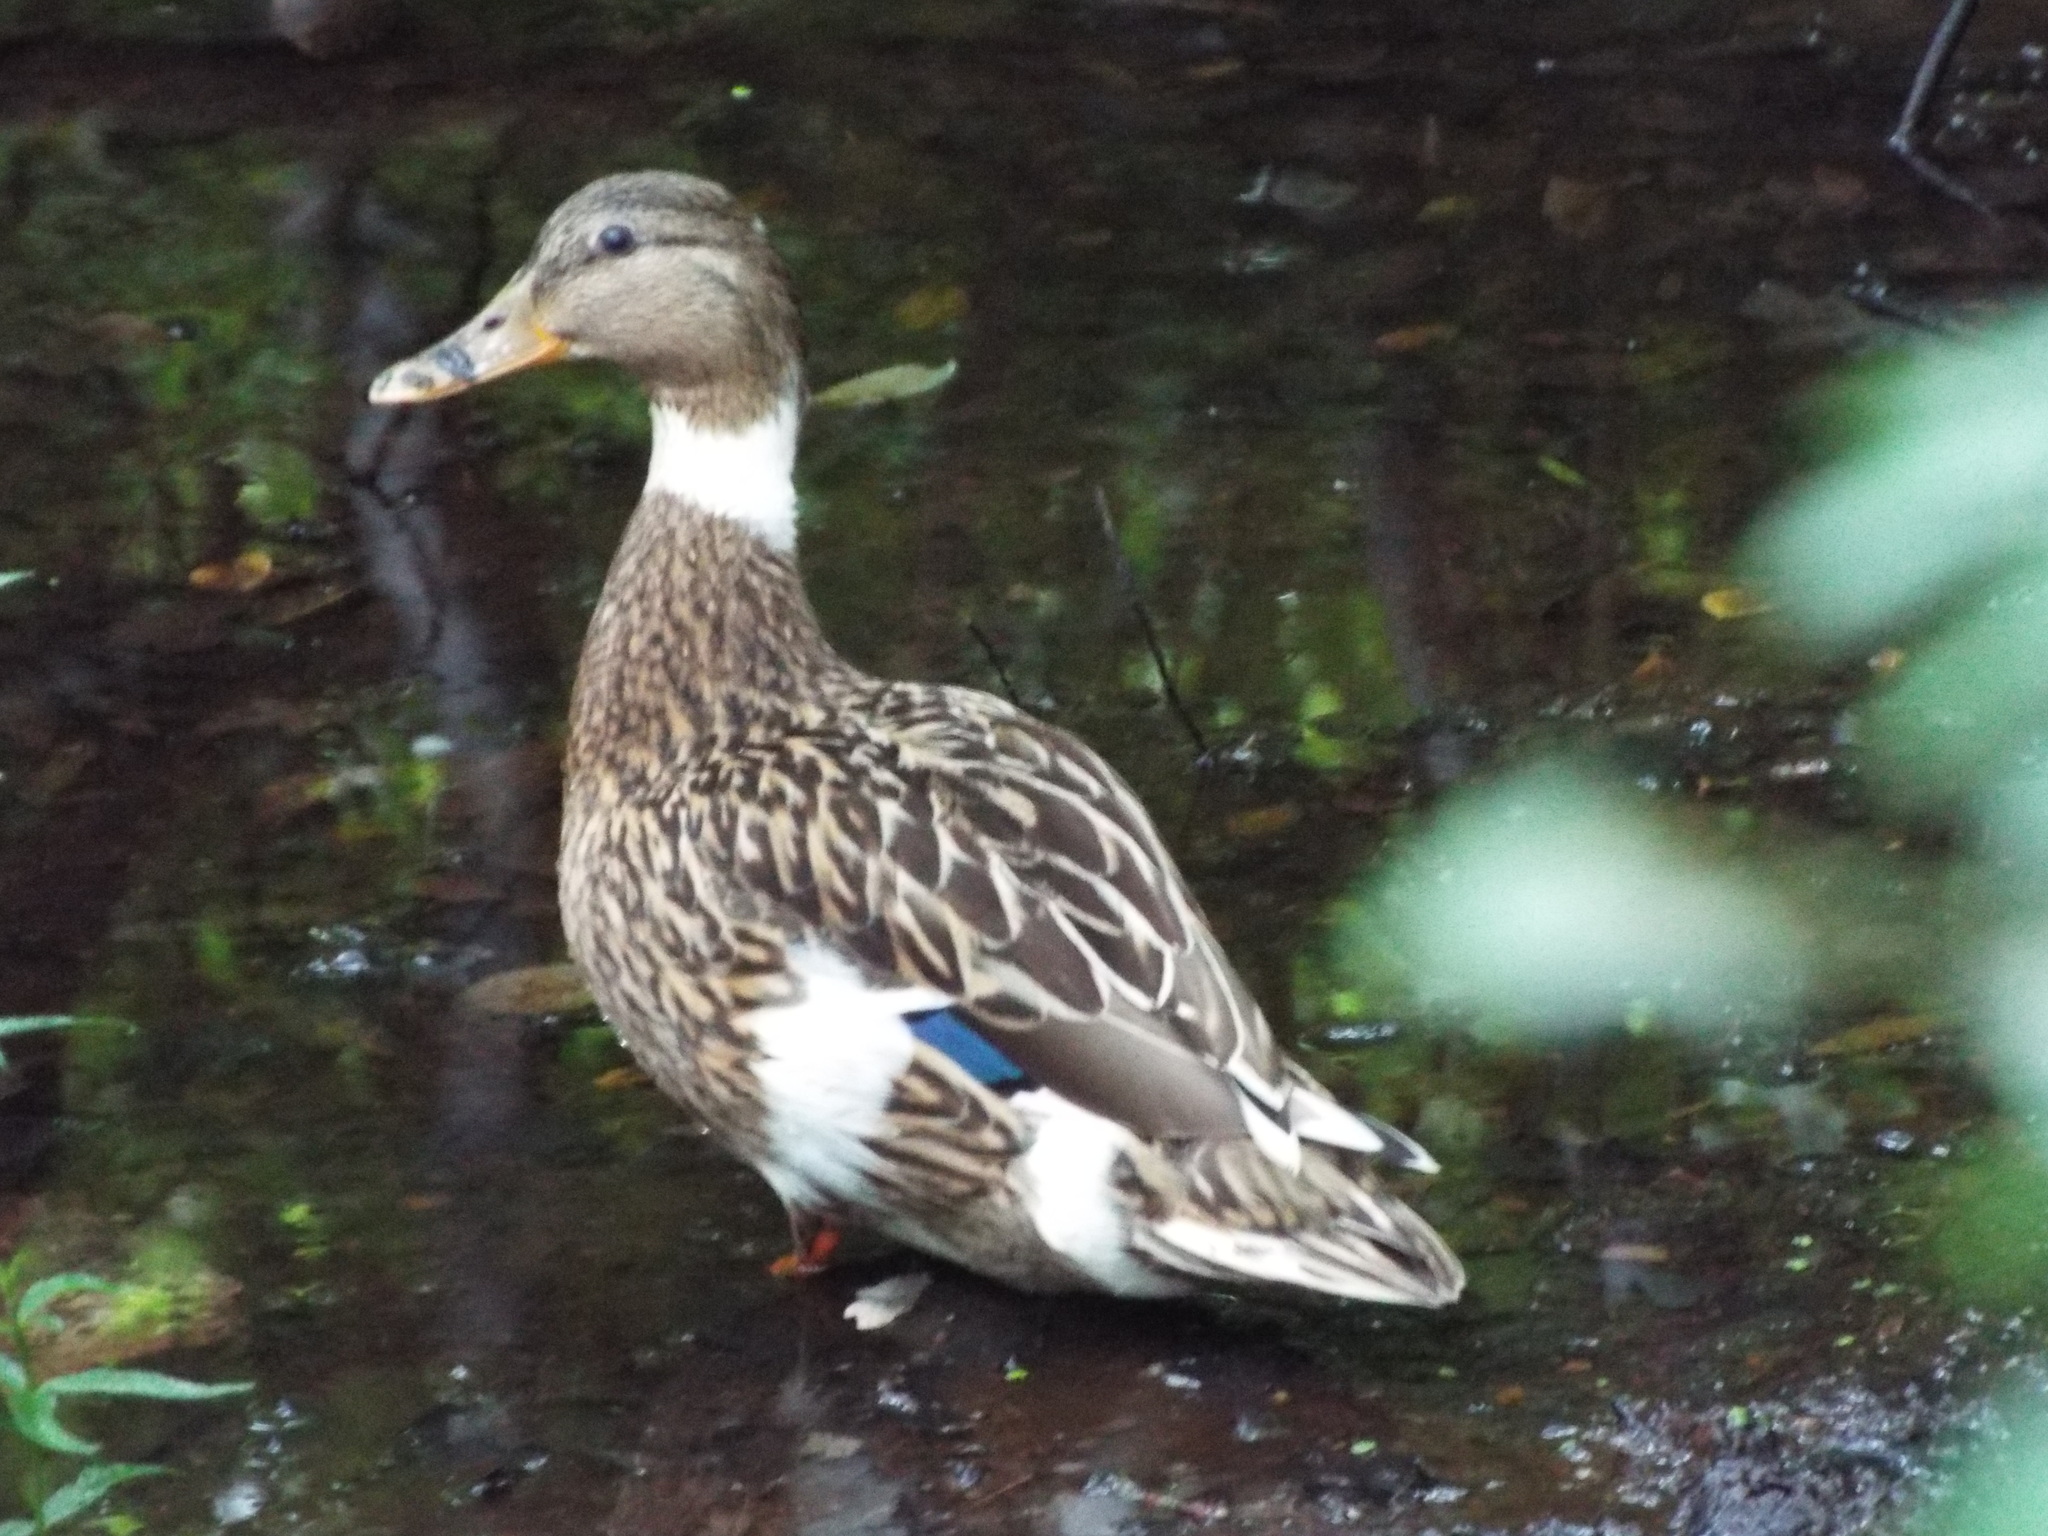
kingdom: Animalia
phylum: Chordata
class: Aves
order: Anseriformes
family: Anatidae
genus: Anas
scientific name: Anas platyrhynchos
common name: Mallard
